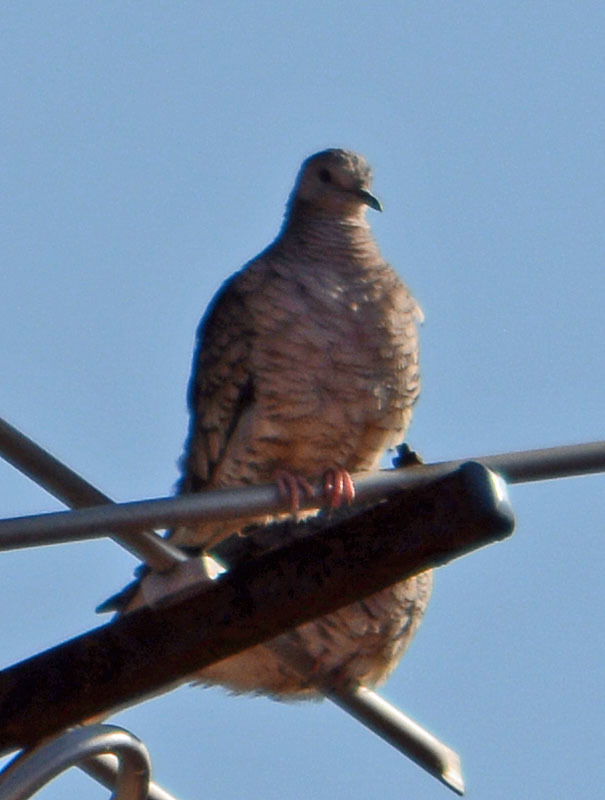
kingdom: Animalia
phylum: Chordata
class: Aves
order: Columbiformes
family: Columbidae
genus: Columbina
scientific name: Columbina inca
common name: Inca dove
